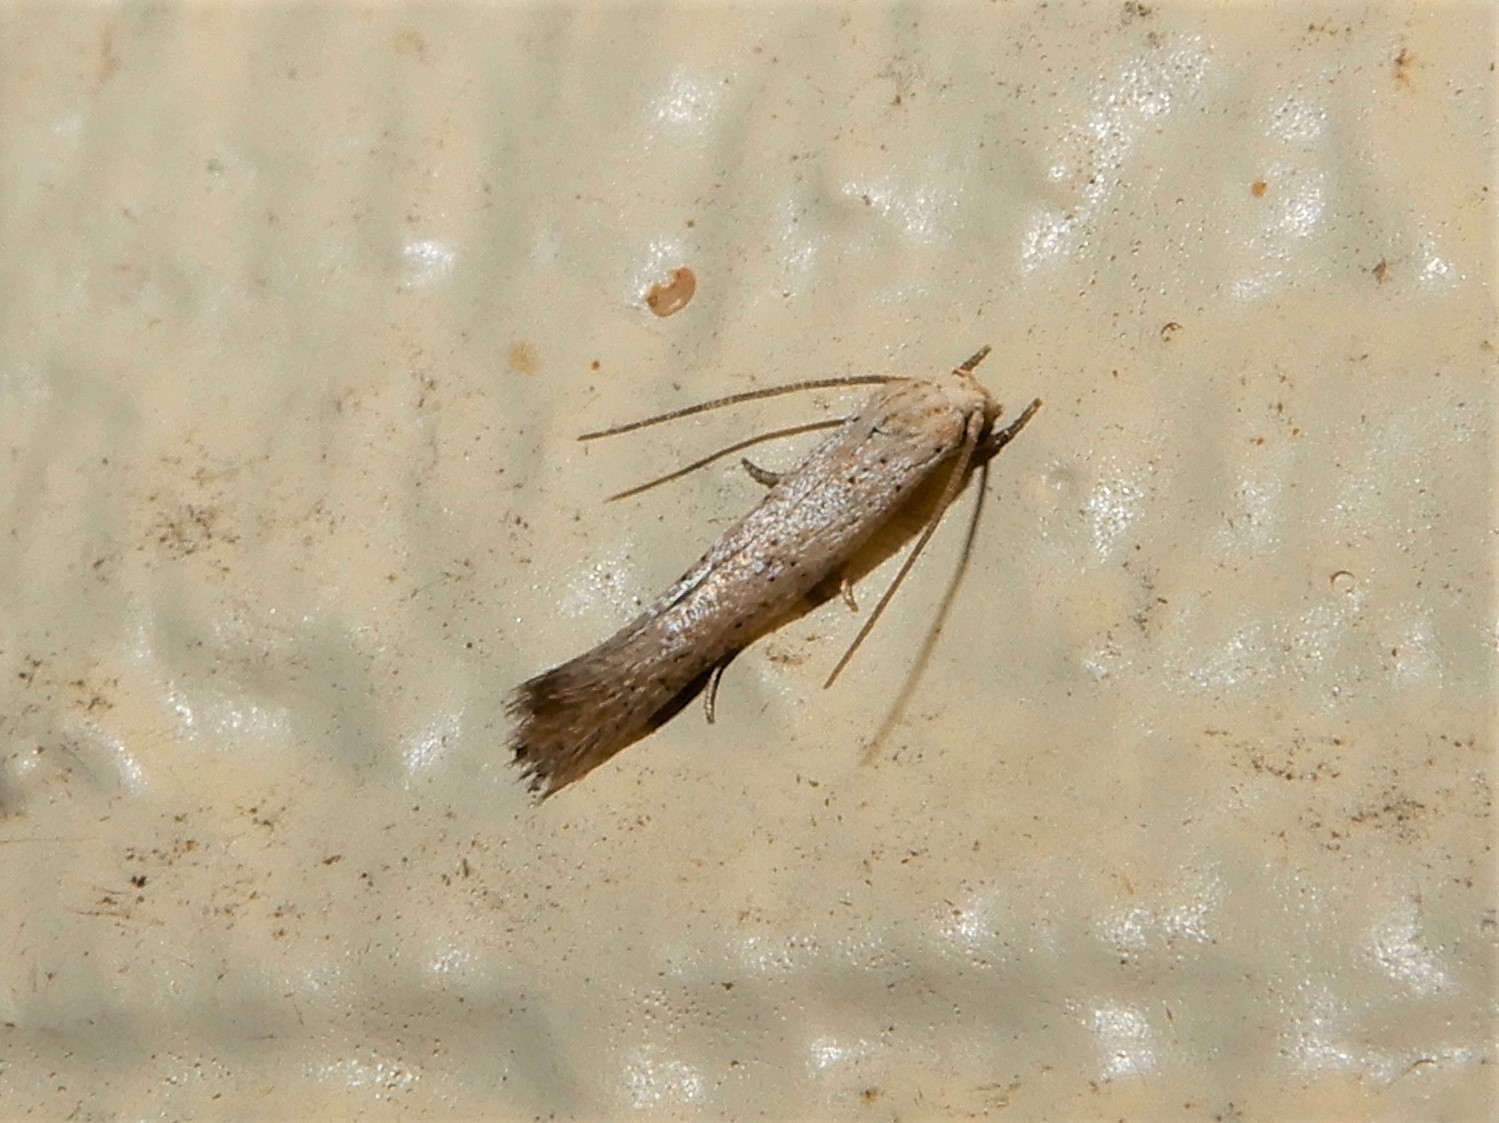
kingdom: Animalia
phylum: Arthropoda
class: Insecta
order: Lepidoptera
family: Elachistidae
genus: Elachista
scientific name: Elachista gerasmia
